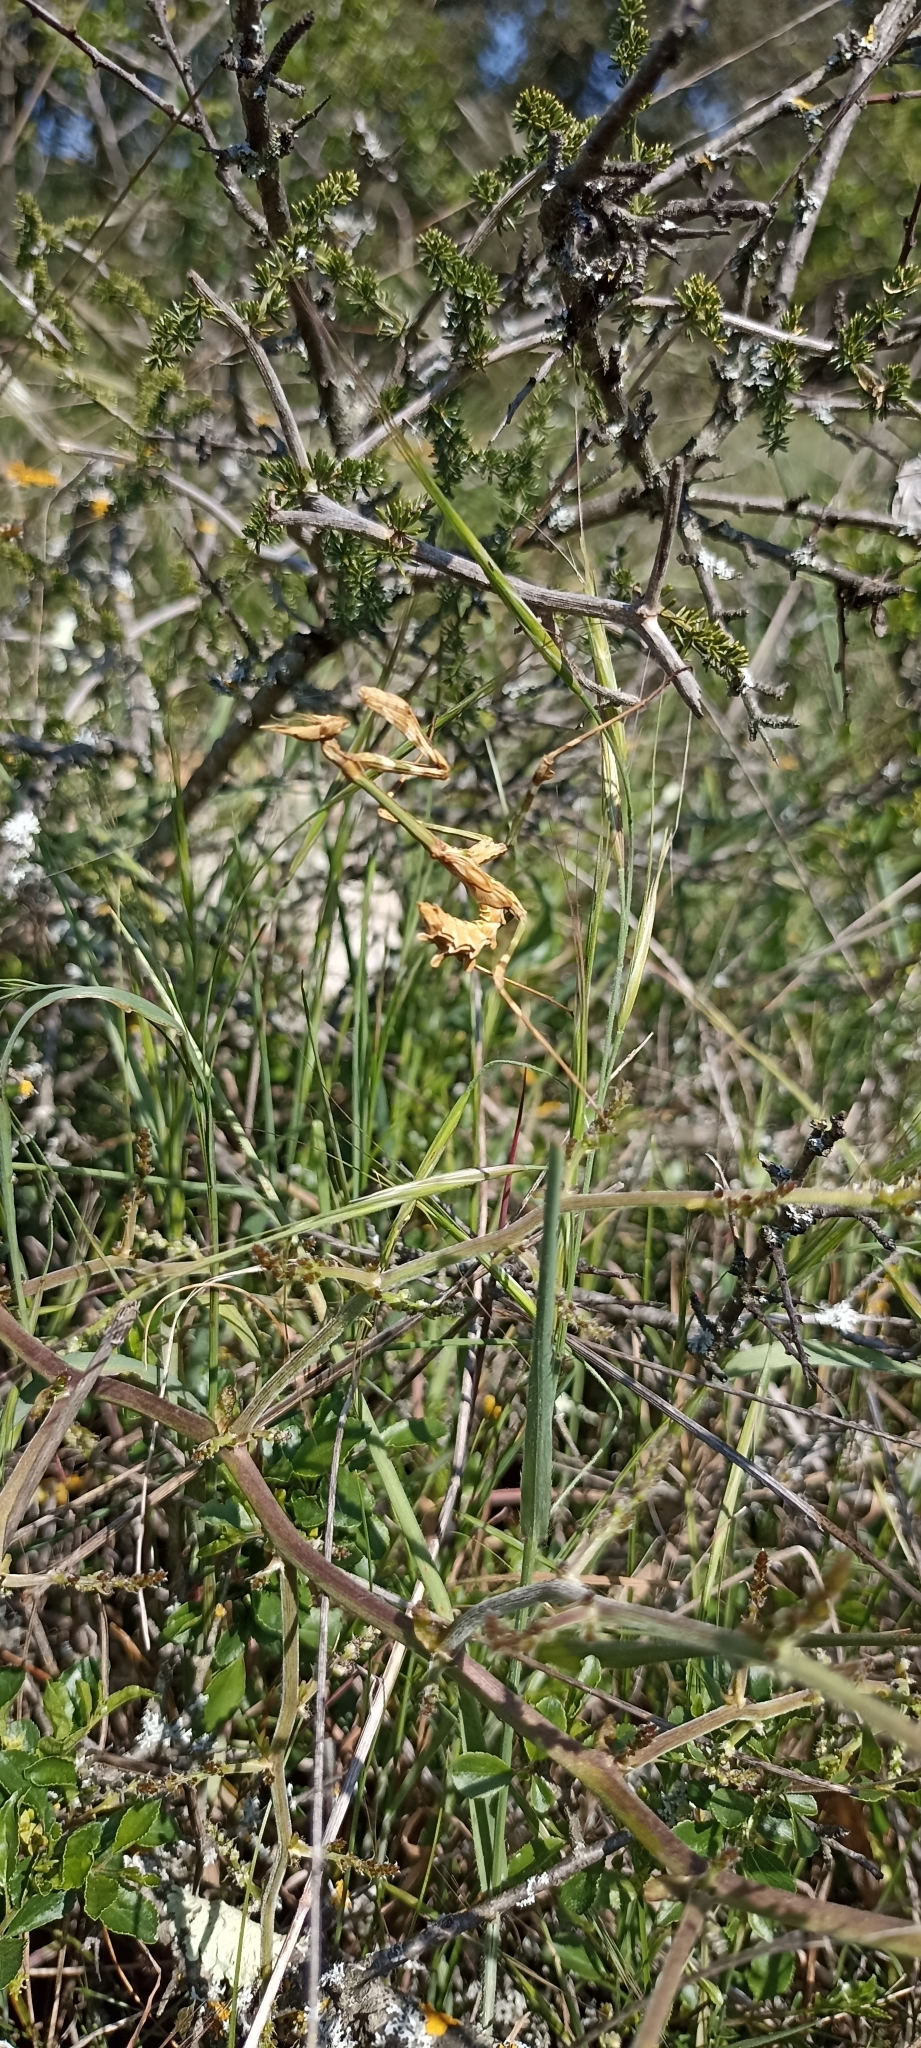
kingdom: Animalia
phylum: Arthropoda
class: Insecta
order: Mantodea
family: Empusidae
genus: Empusa
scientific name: Empusa pennata
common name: Conehead mantis
